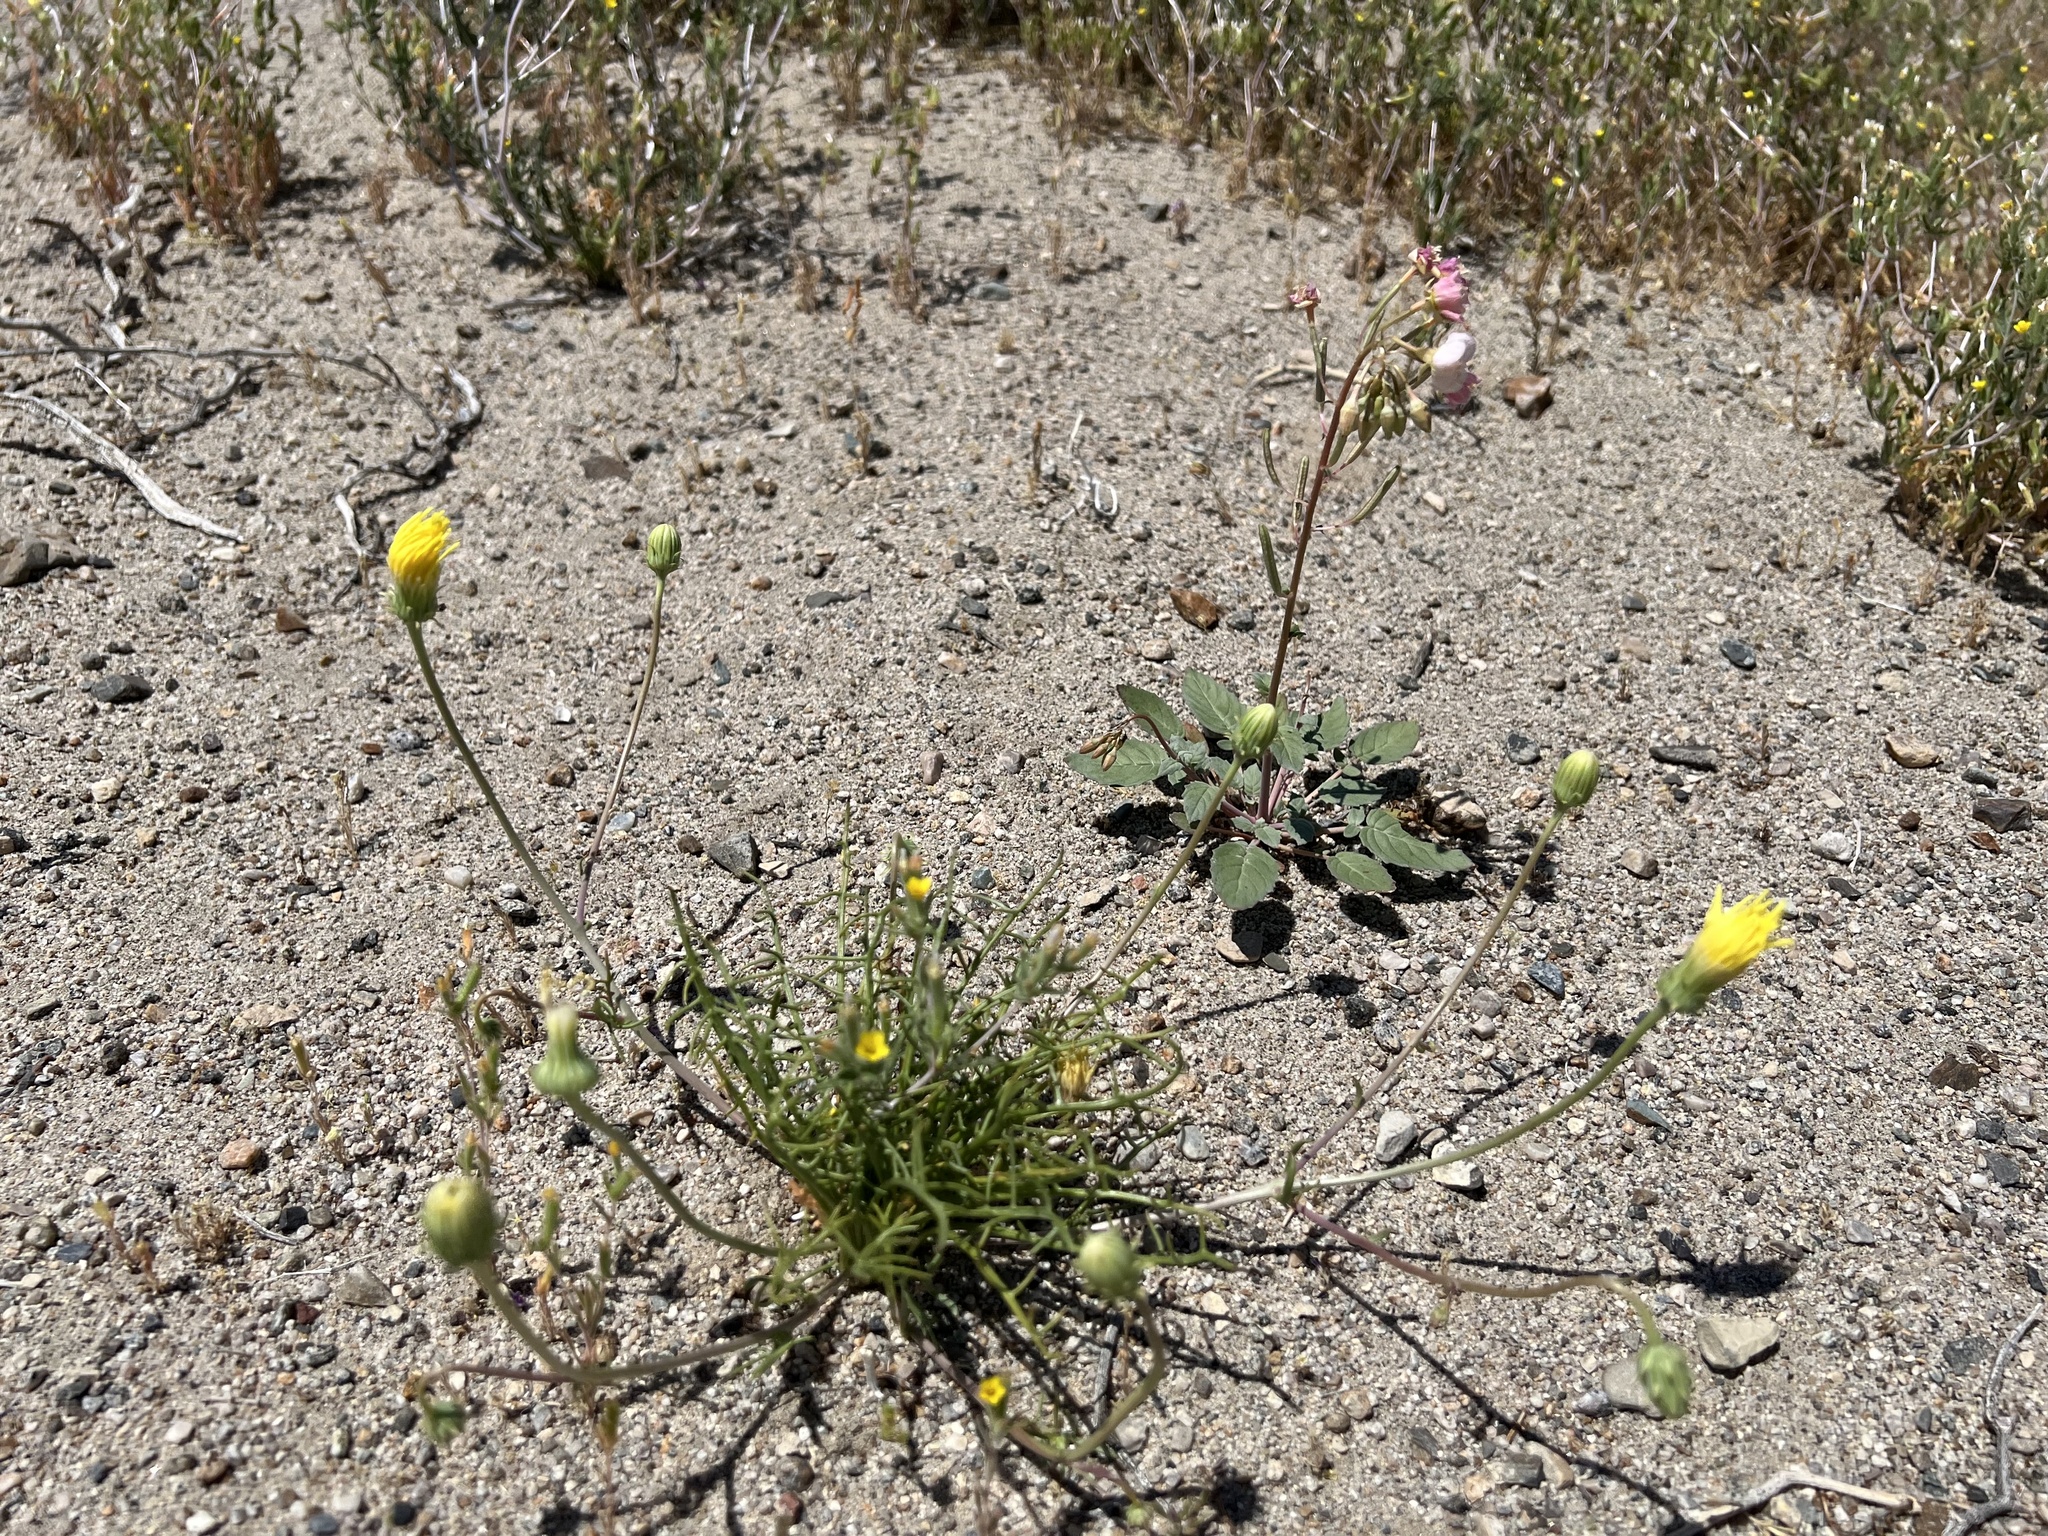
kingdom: Plantae
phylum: Tracheophyta
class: Magnoliopsida
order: Asterales
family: Asteraceae
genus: Malacothrix
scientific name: Malacothrix glabrata
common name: Smooth desert-dandelion
